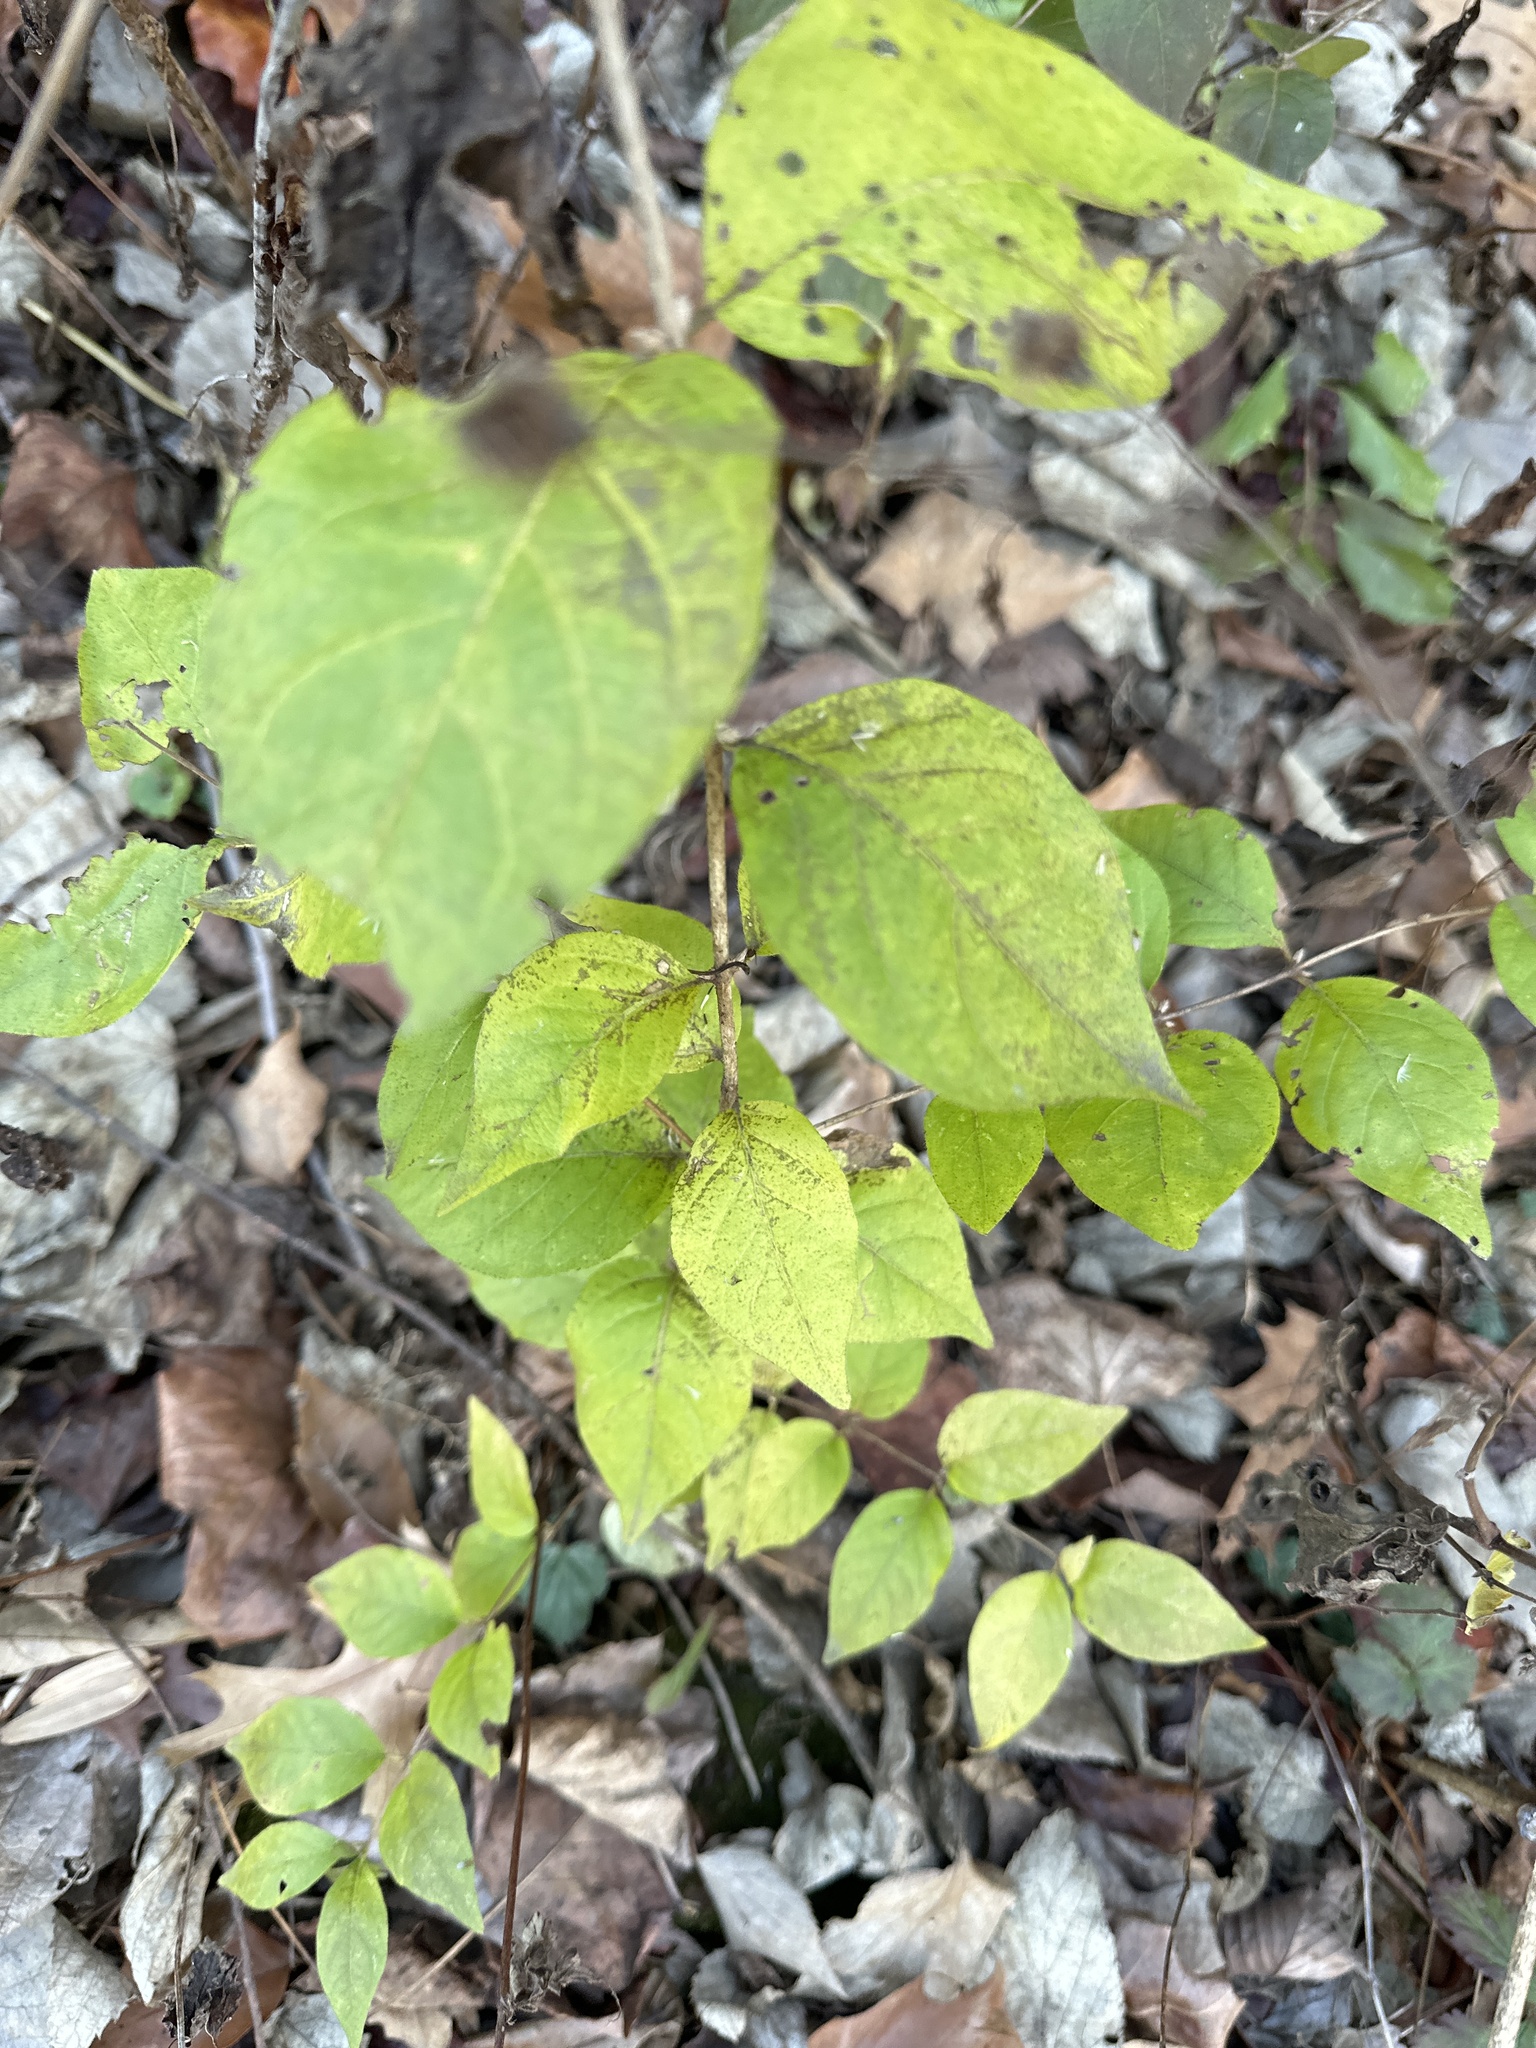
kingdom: Plantae
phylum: Tracheophyta
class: Magnoliopsida
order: Dipsacales
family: Caprifoliaceae
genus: Lonicera
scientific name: Lonicera maackii
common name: Amur honeysuckle
